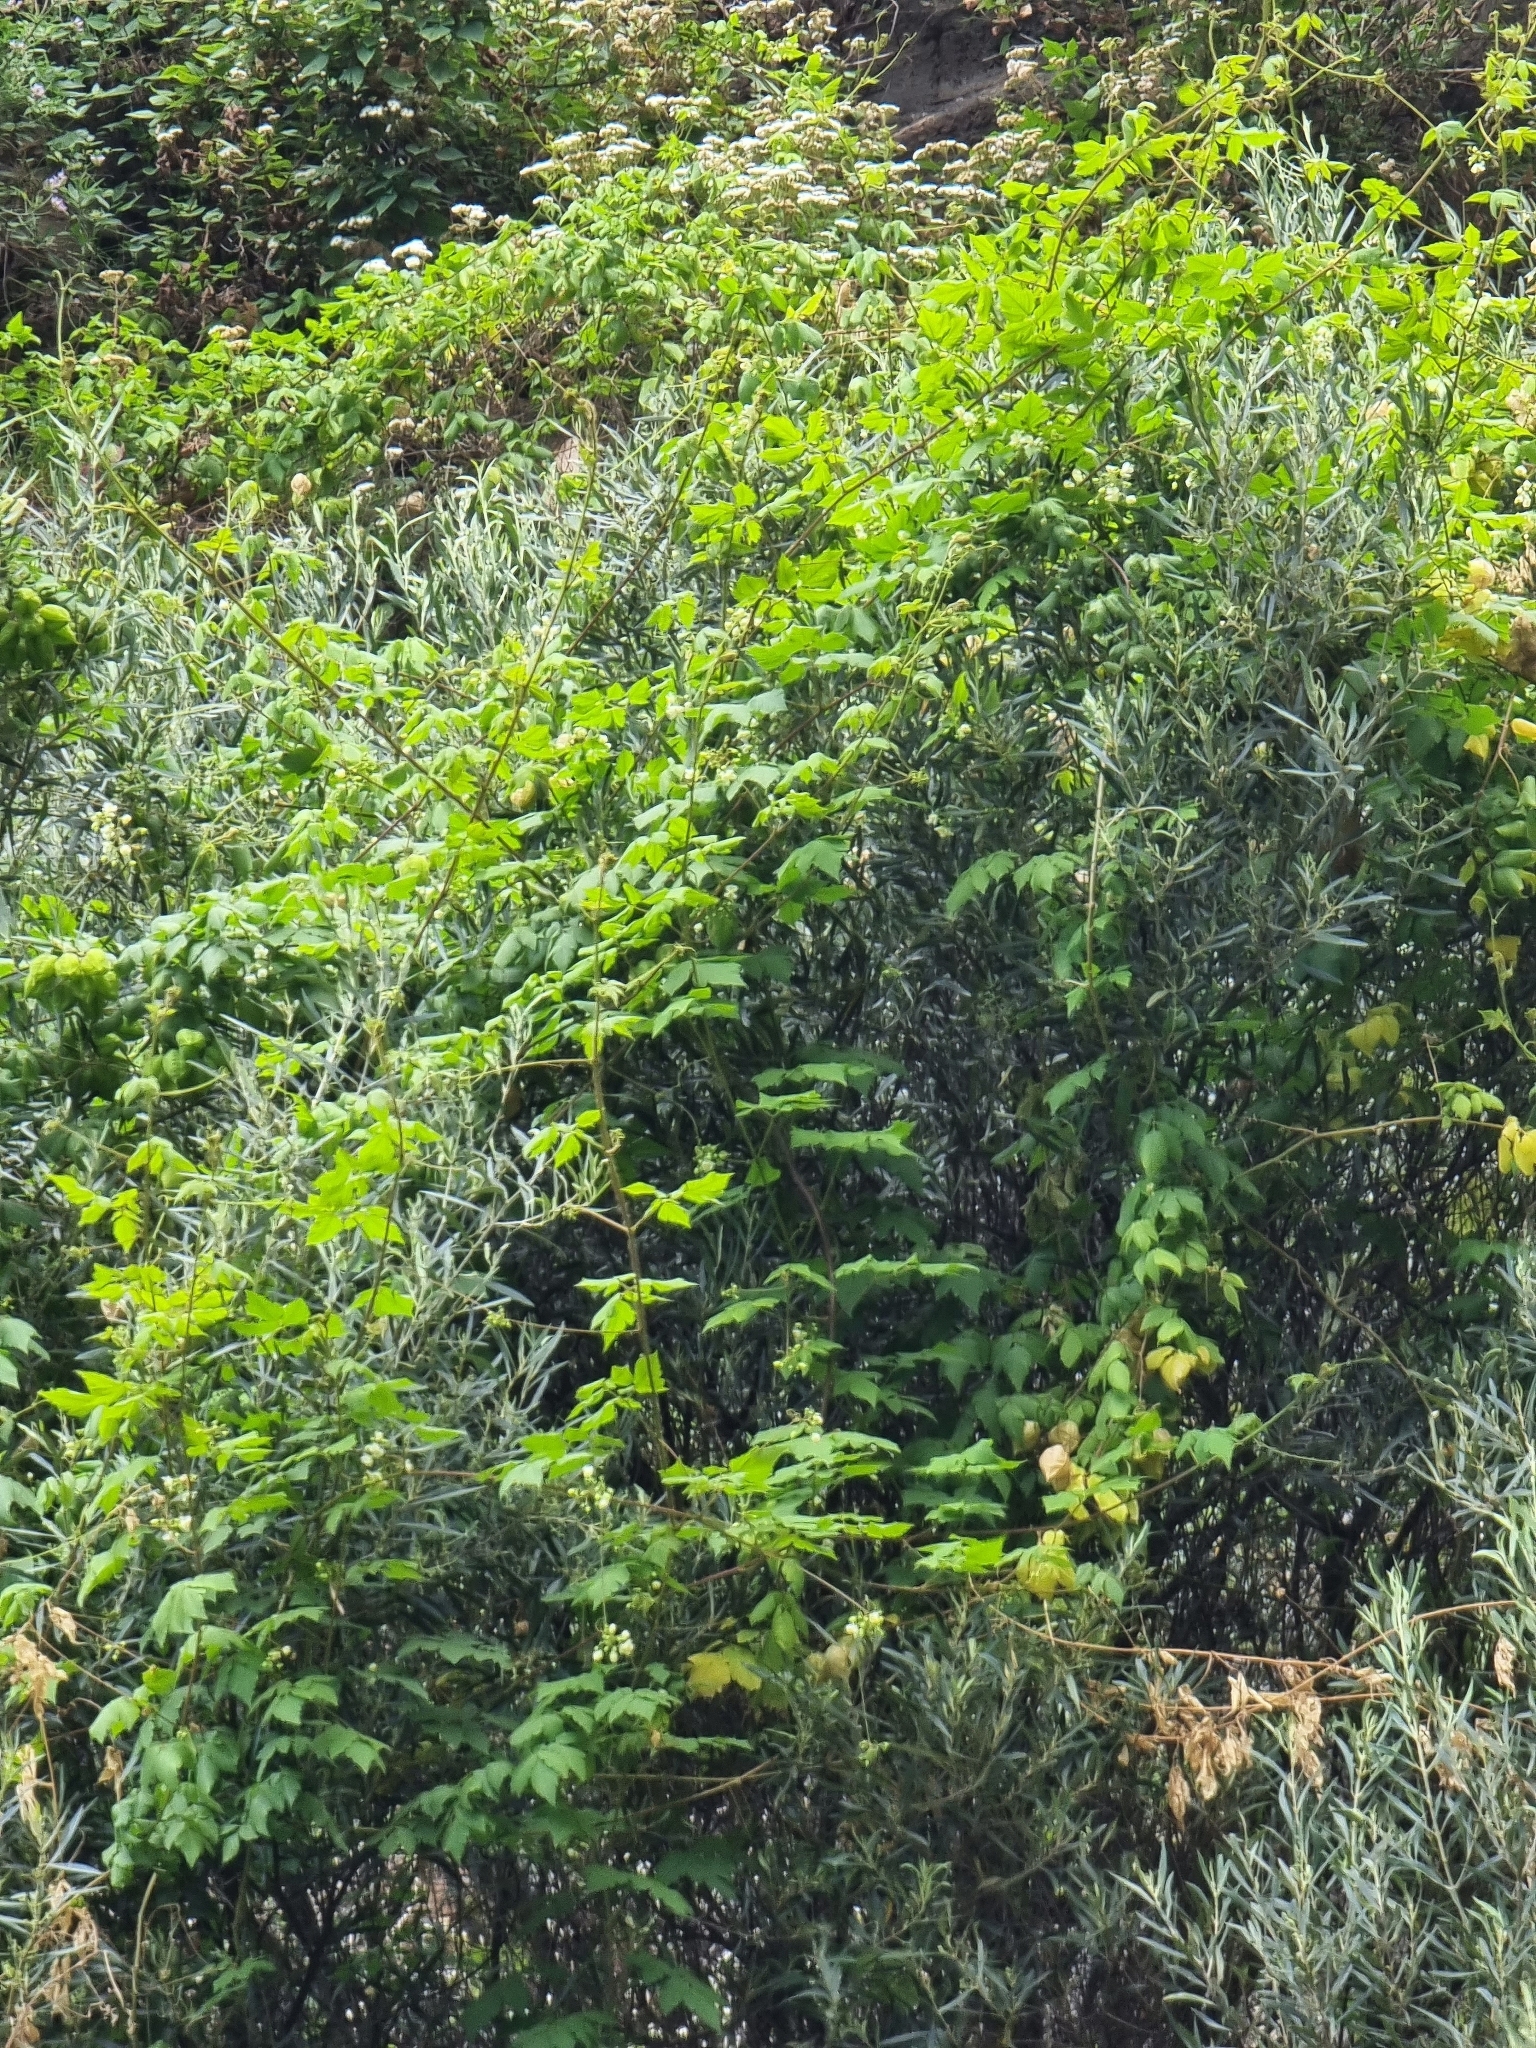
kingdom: Plantae
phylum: Tracheophyta
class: Magnoliopsida
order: Sapindales
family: Sapindaceae
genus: Cardiospermum
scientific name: Cardiospermum grandiflorum
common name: Balloon vine
